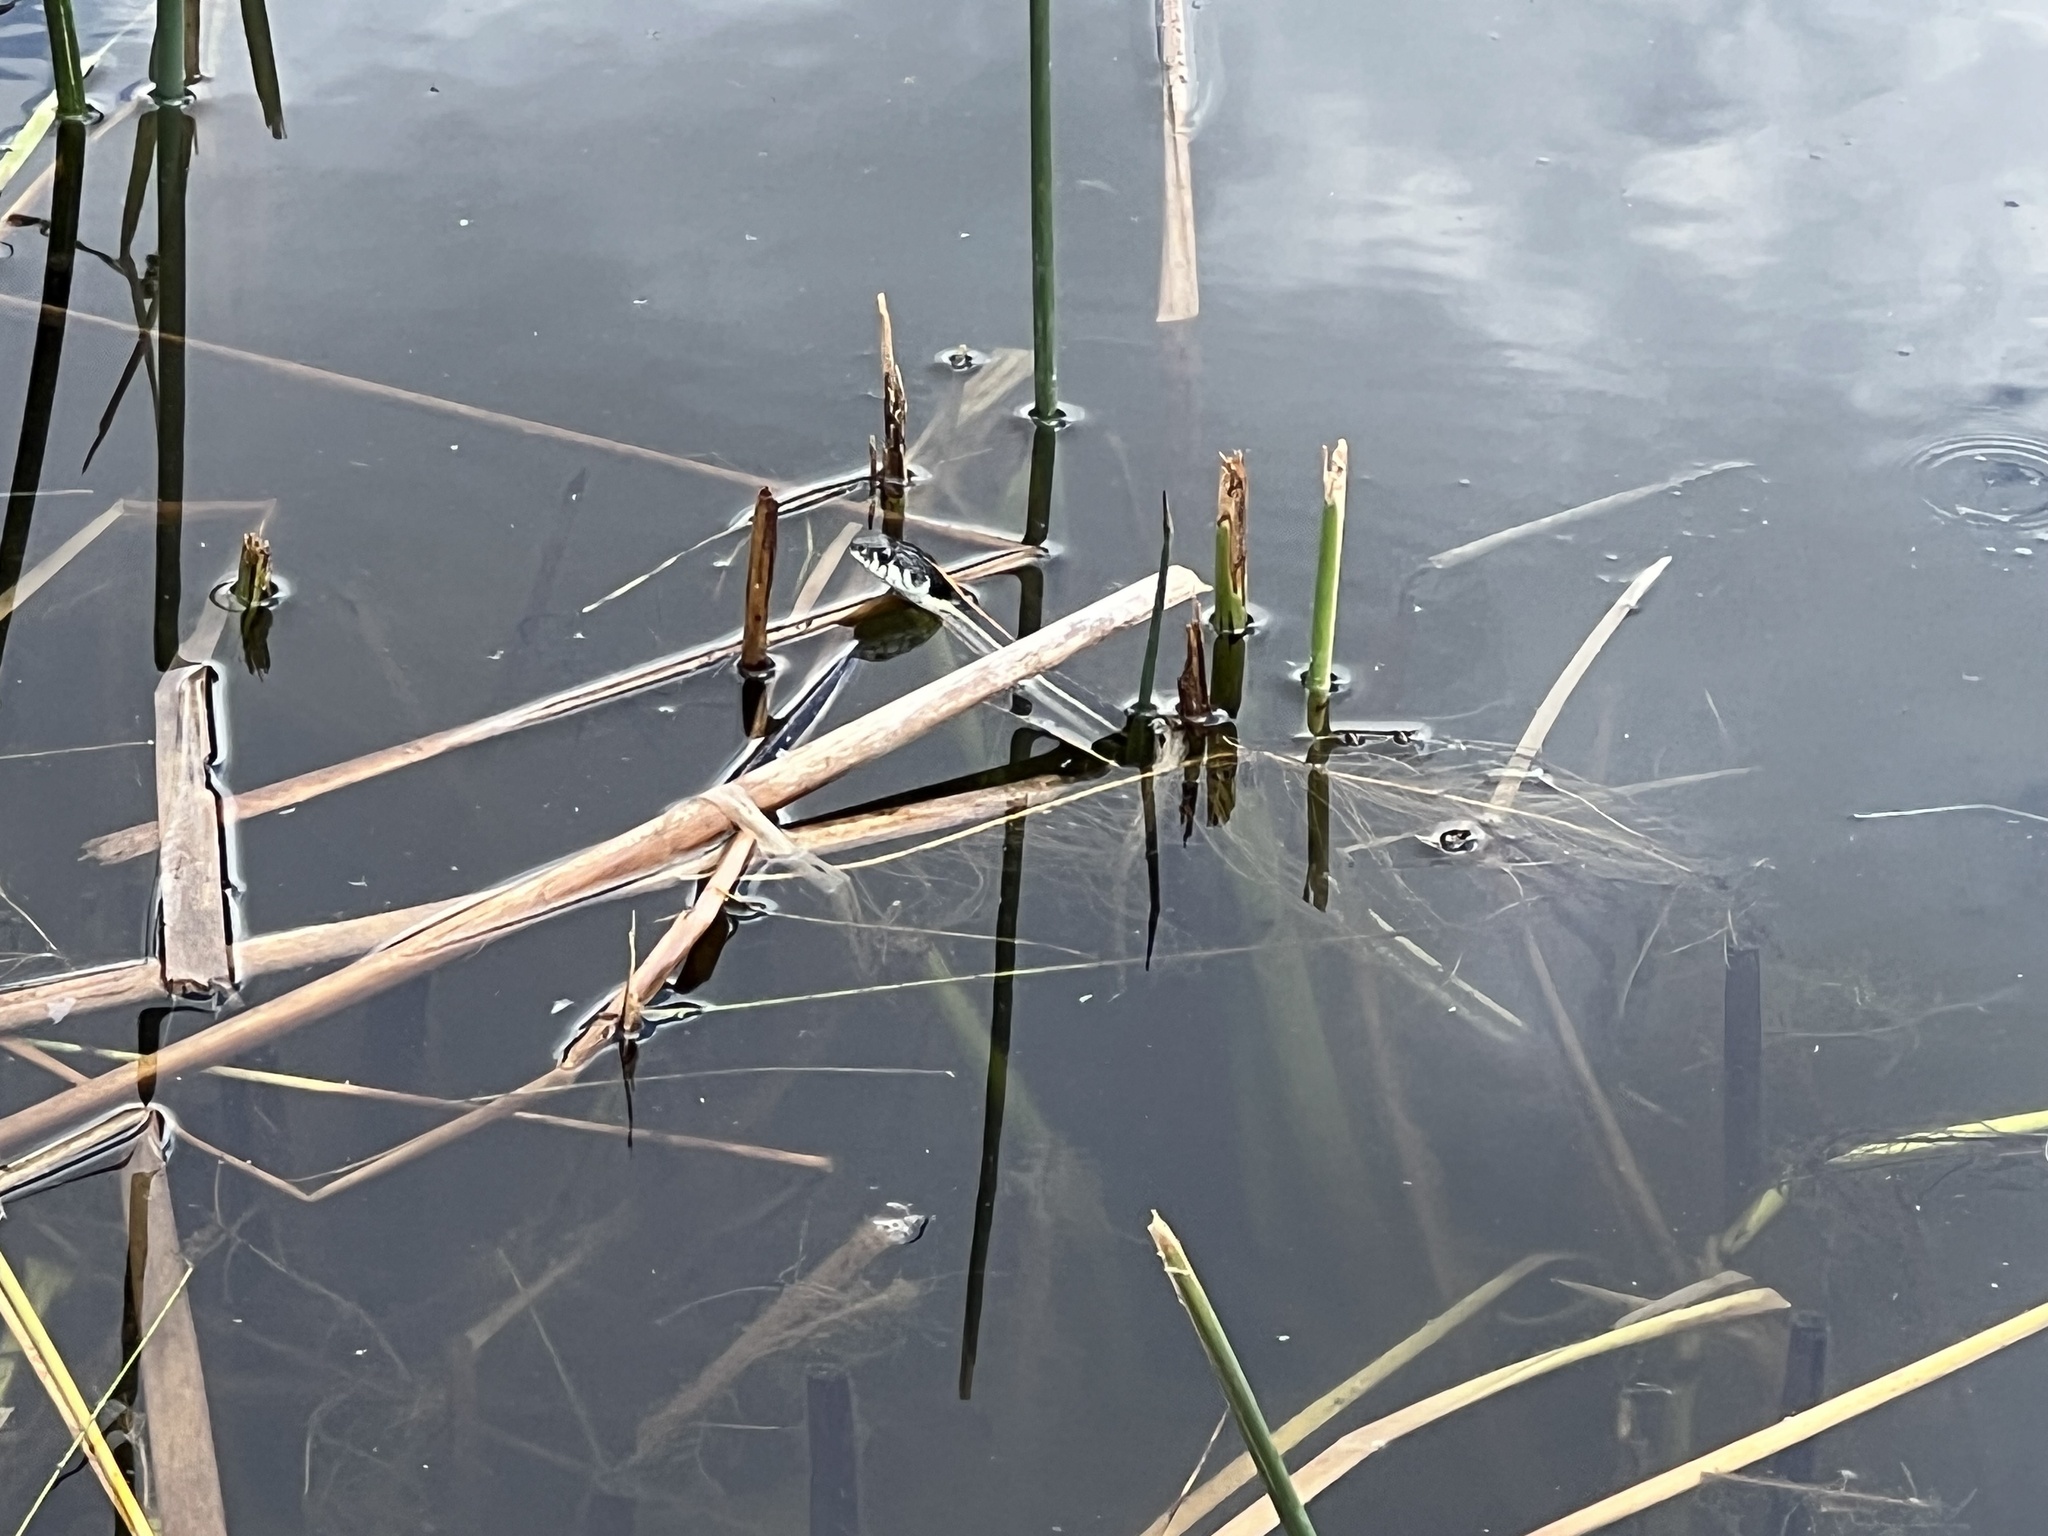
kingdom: Animalia
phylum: Chordata
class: Squamata
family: Colubridae
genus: Thamnophis
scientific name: Thamnophis cyrtopsis
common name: Black-necked gartersnake
